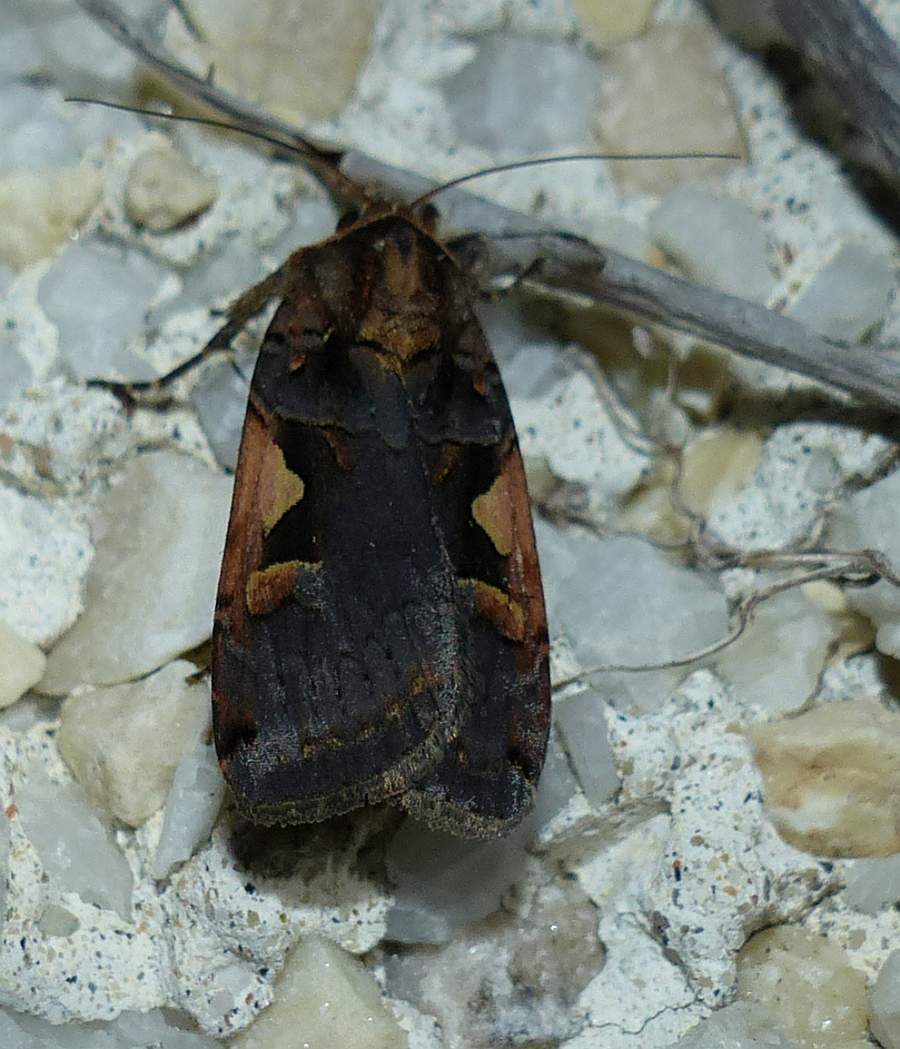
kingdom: Animalia
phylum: Arthropoda
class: Insecta
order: Lepidoptera
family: Noctuidae
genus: Xestia
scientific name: Xestia dolosa
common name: Cutworm moth
